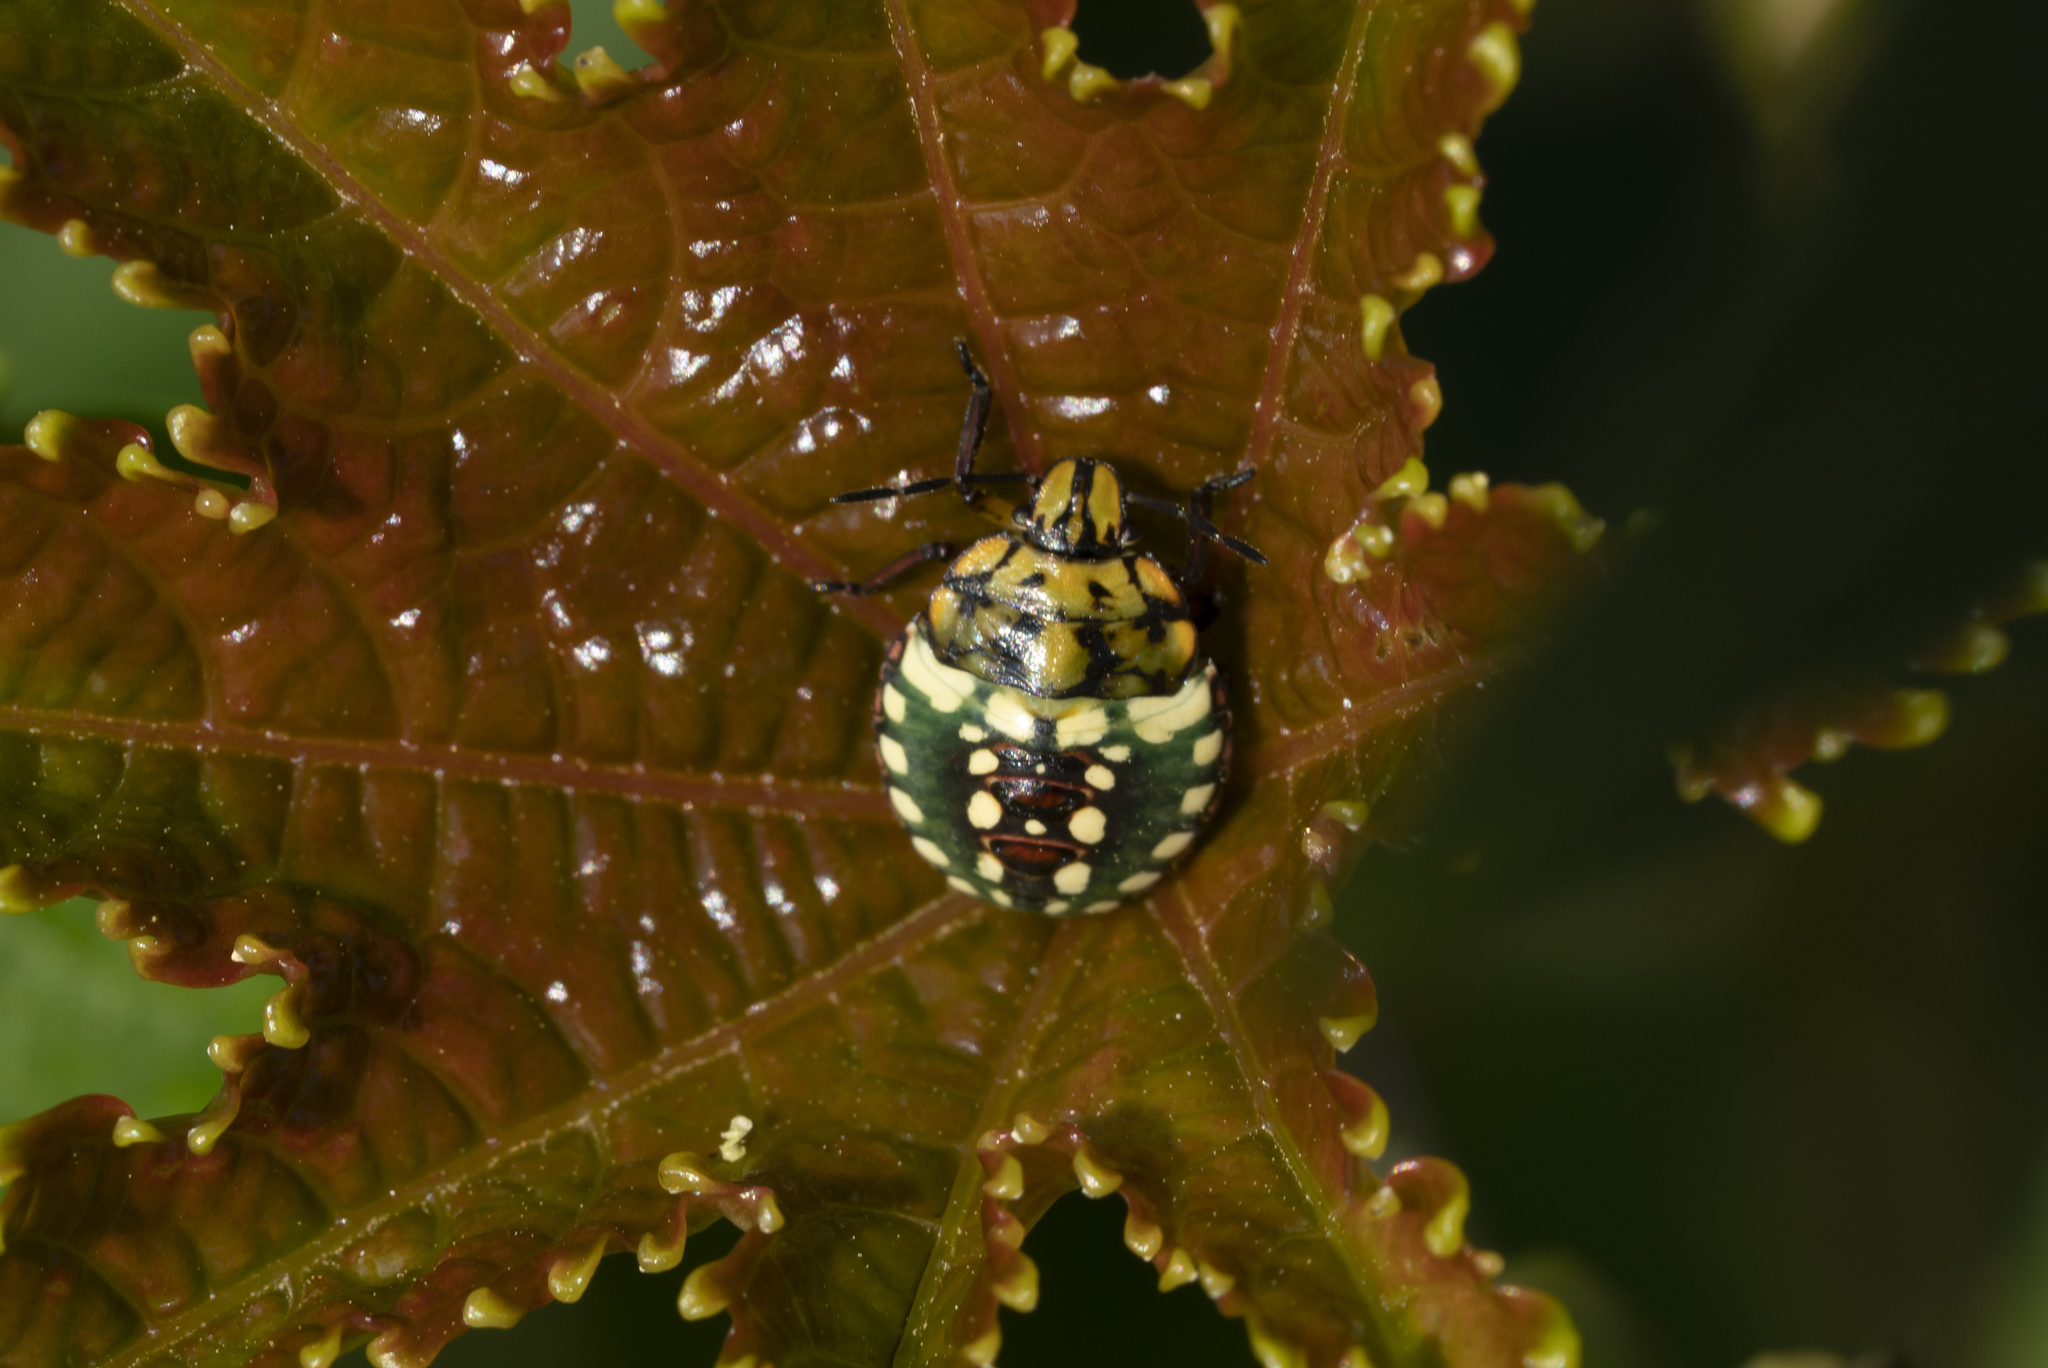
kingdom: Animalia
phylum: Arthropoda
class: Insecta
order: Hemiptera
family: Pentatomidae
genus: Nezara
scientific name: Nezara viridula
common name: Southern green stink bug
